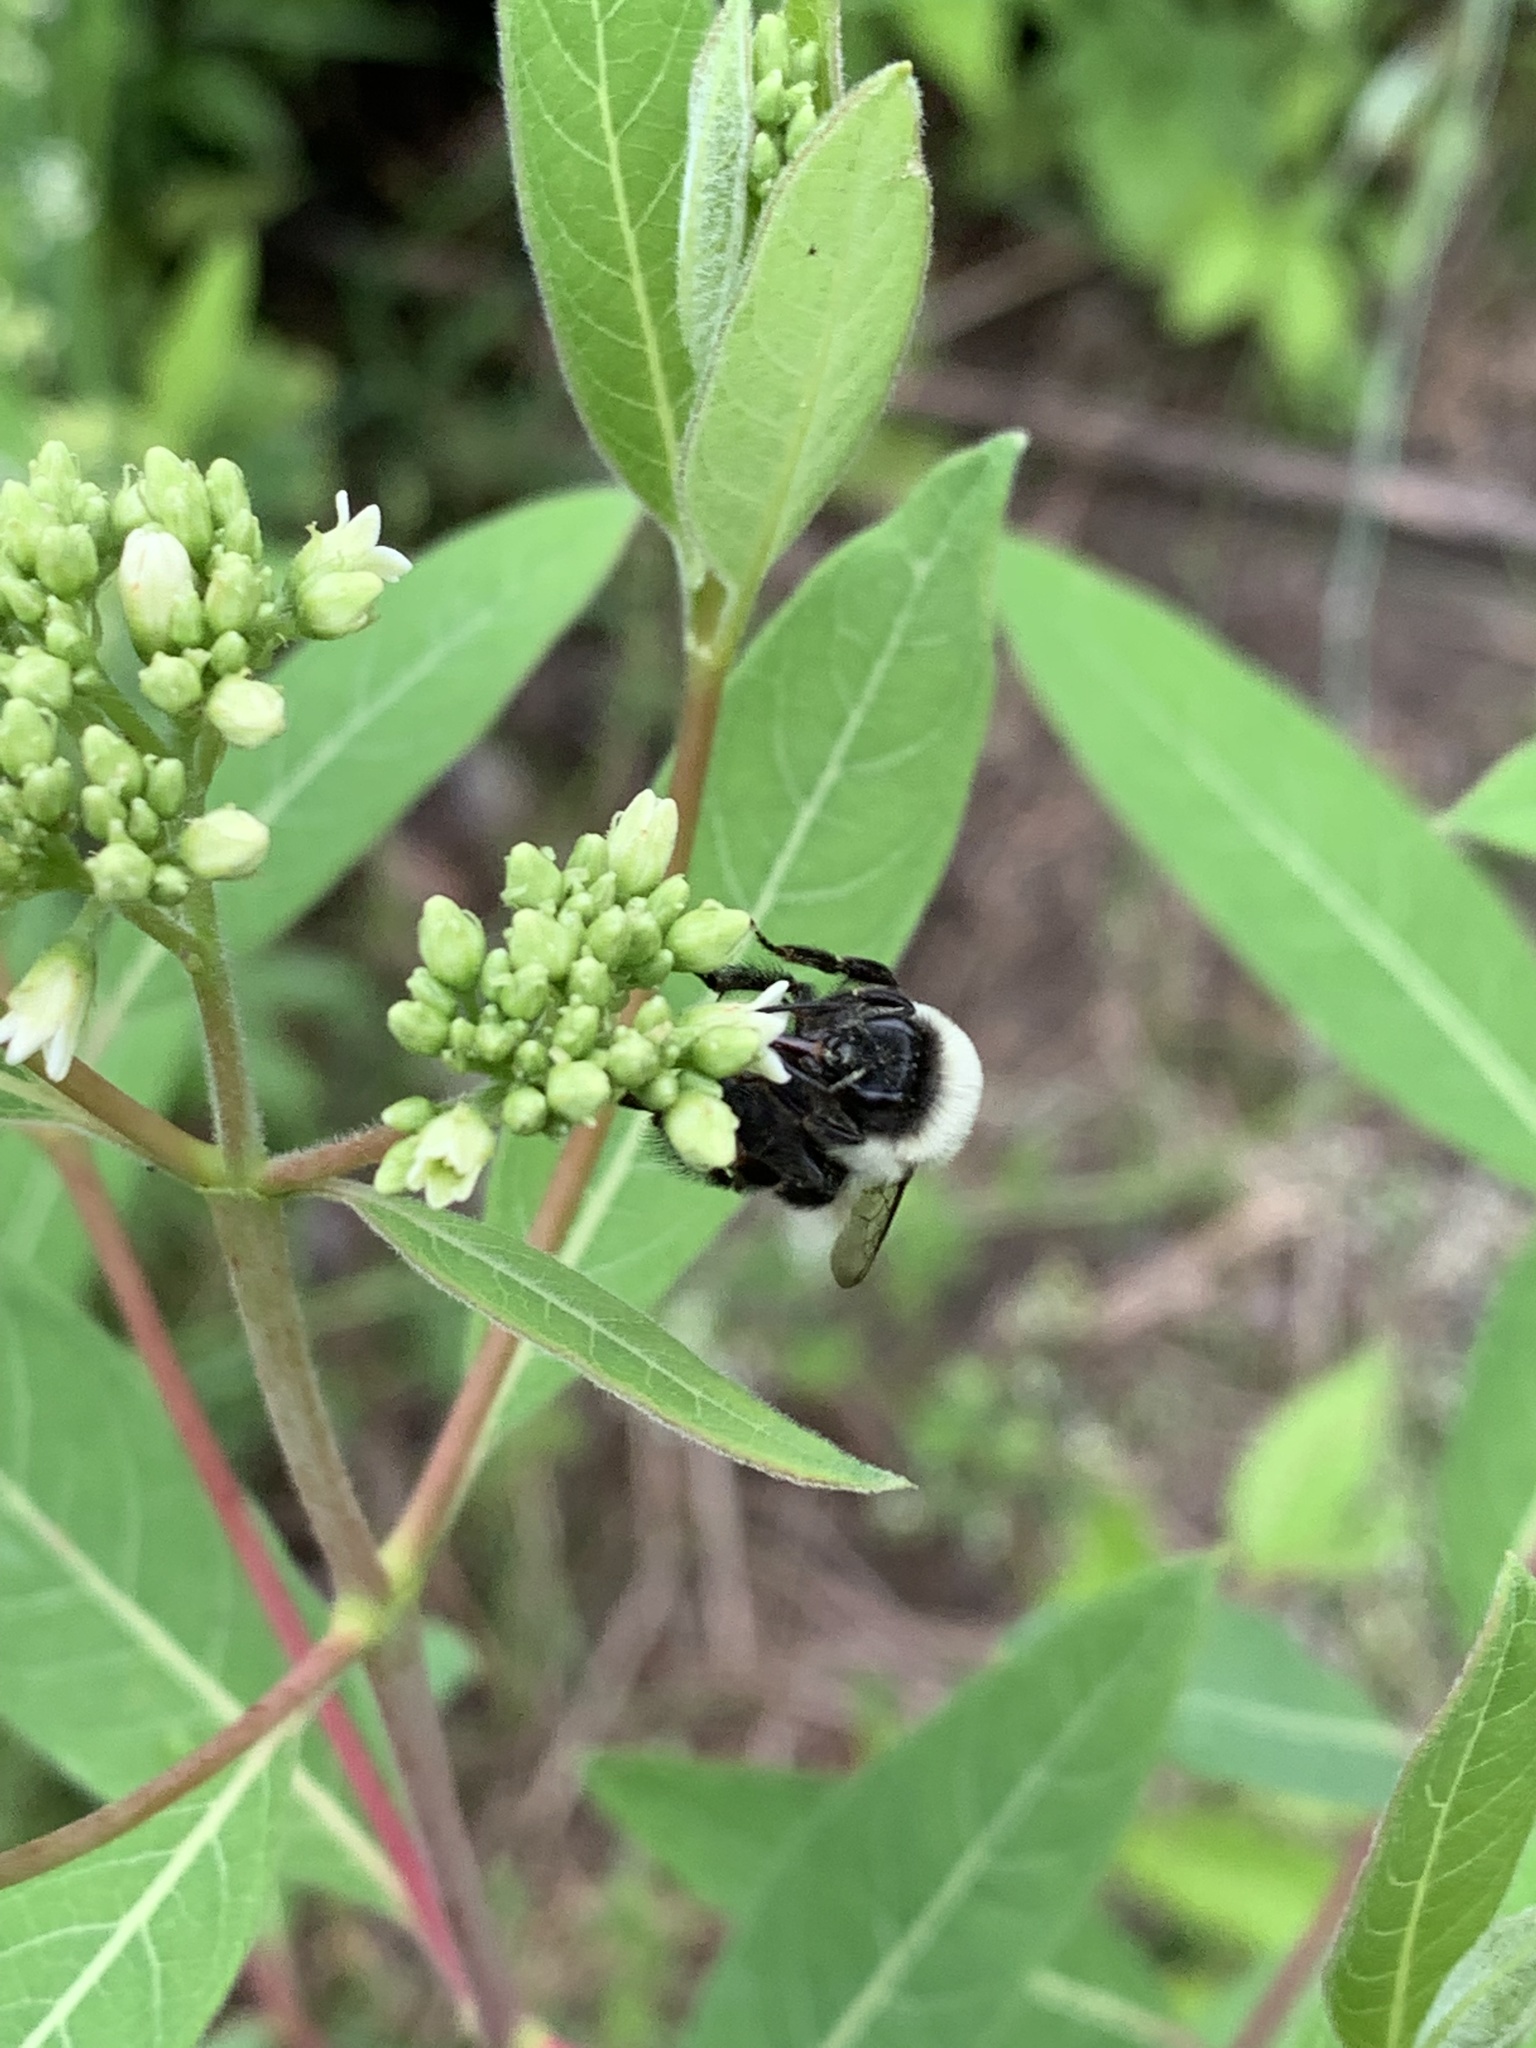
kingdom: Animalia
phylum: Arthropoda
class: Insecta
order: Hymenoptera
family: Apidae
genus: Bombus
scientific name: Bombus impatiens
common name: Common eastern bumble bee
